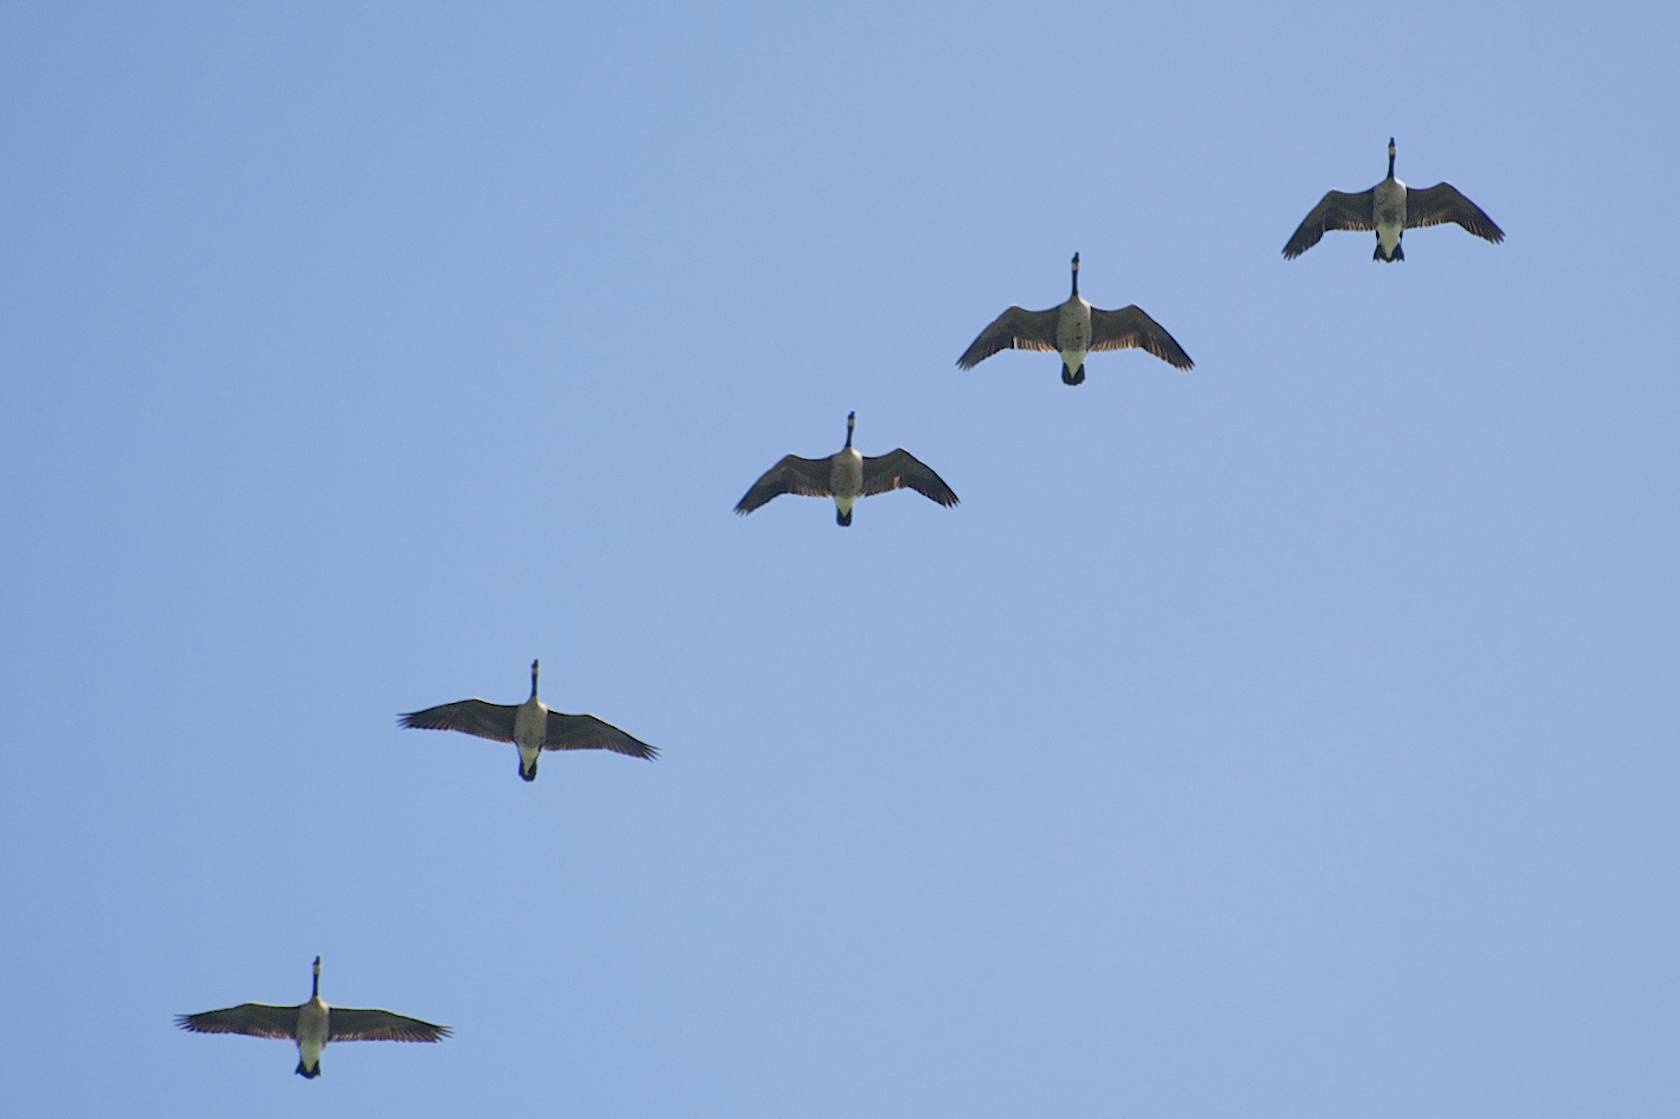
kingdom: Animalia
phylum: Chordata
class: Aves
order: Anseriformes
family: Anatidae
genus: Branta
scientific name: Branta canadensis
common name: Canada goose
